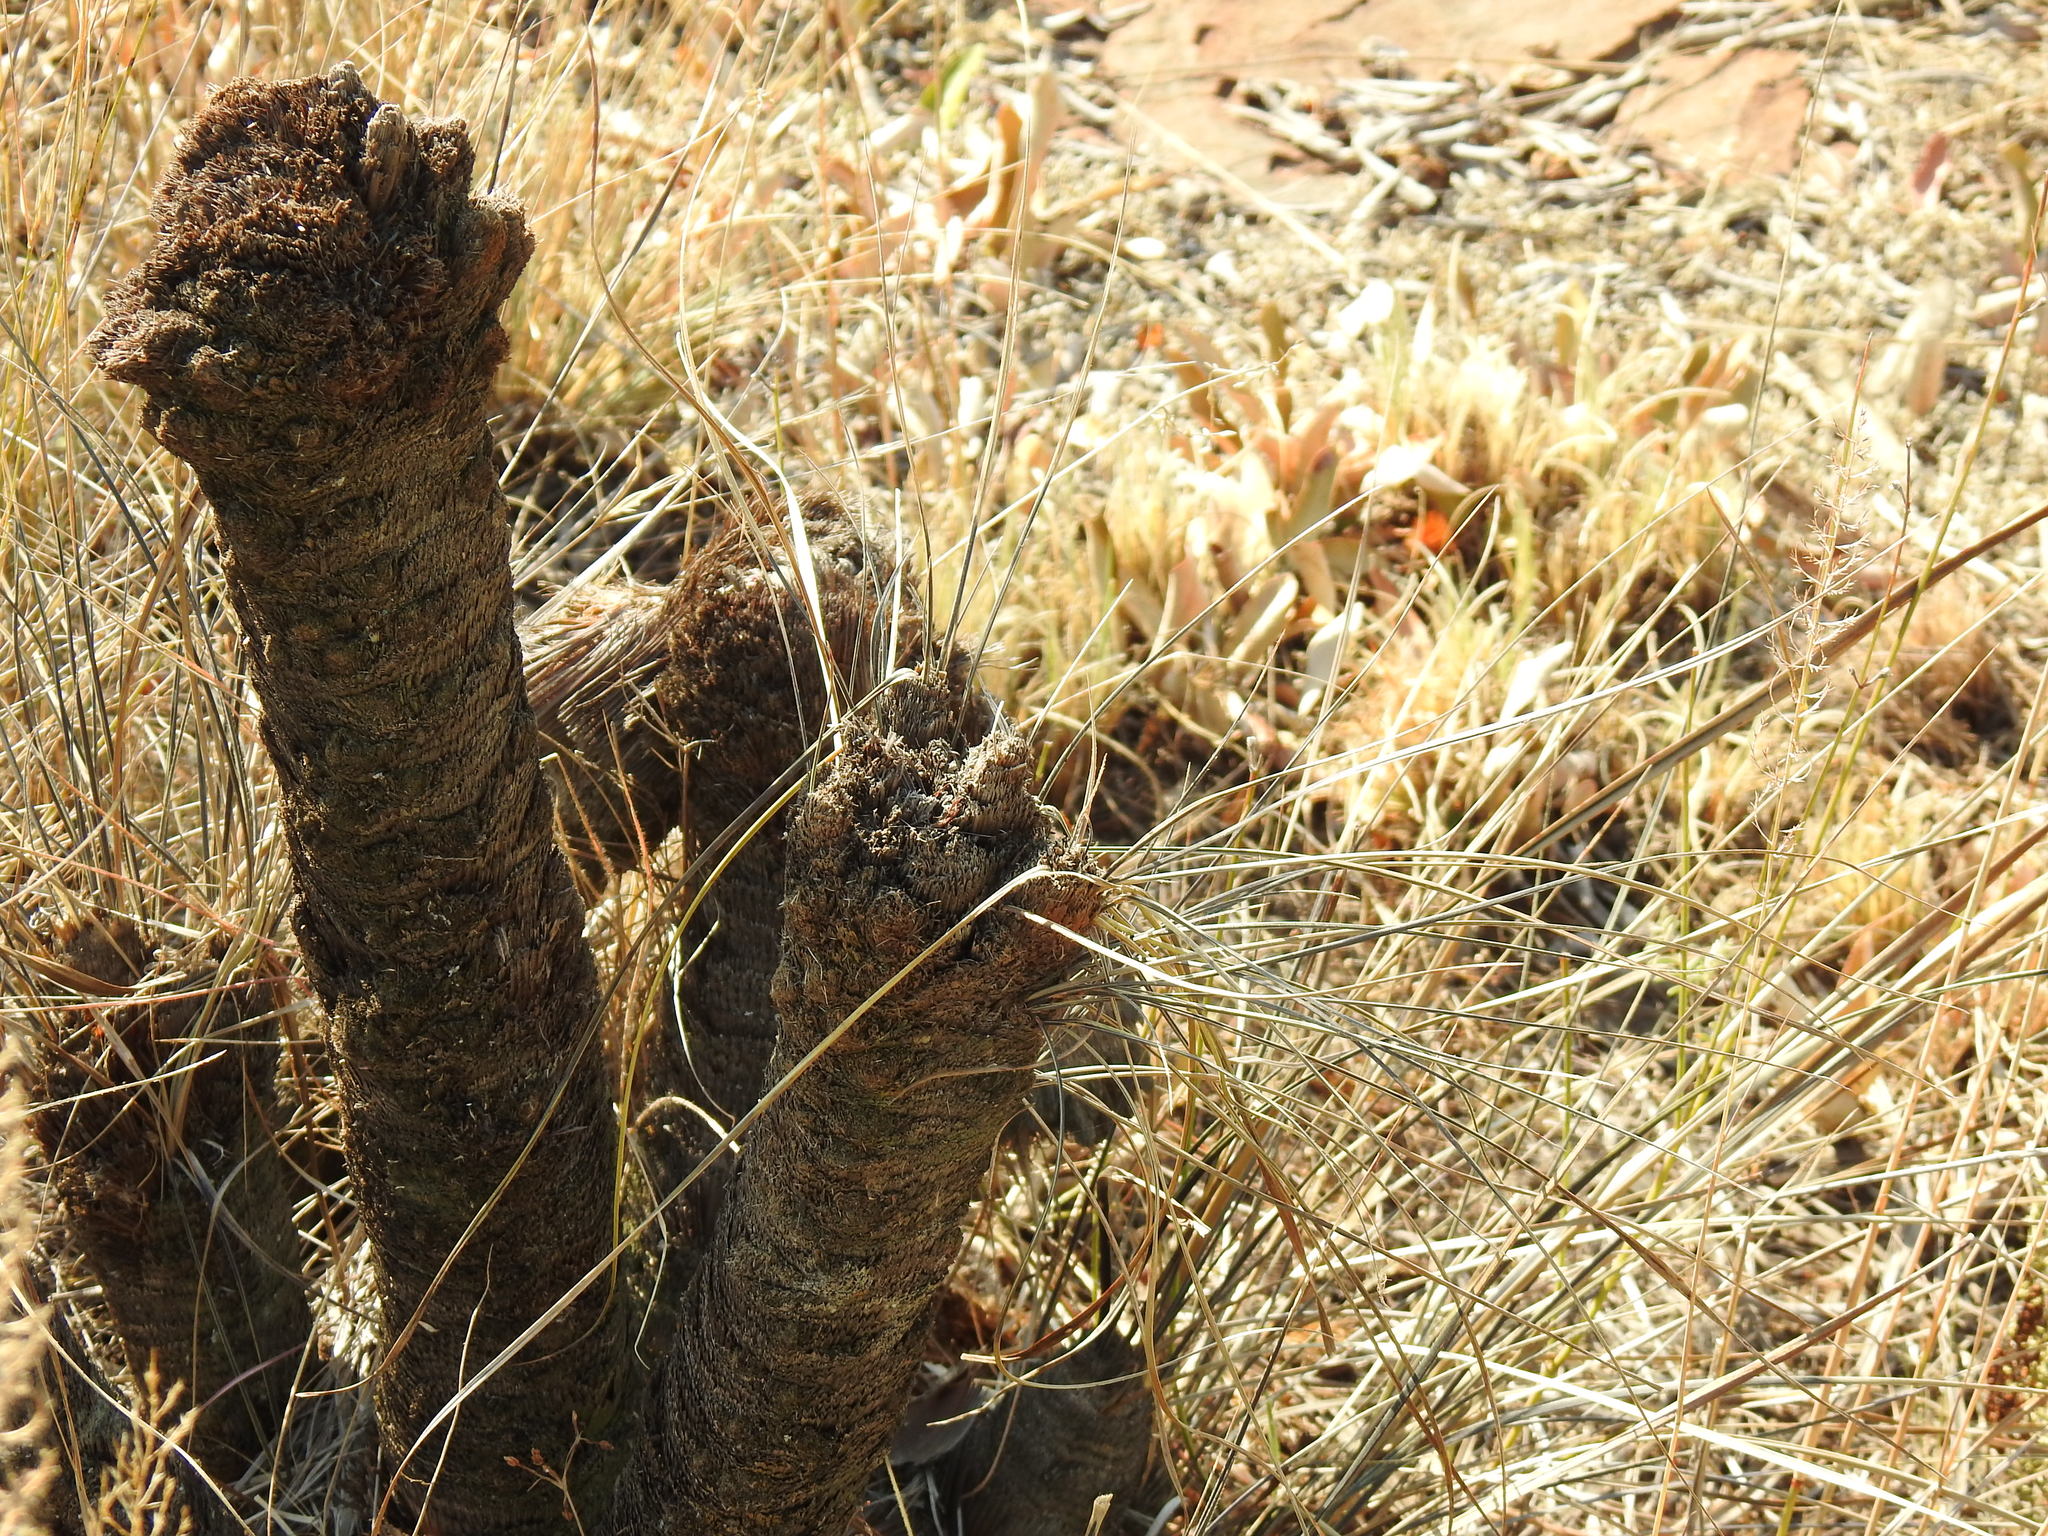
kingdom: Plantae
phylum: Tracheophyta
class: Liliopsida
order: Pandanales
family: Velloziaceae
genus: Xerophyta
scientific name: Xerophyta retinervis
